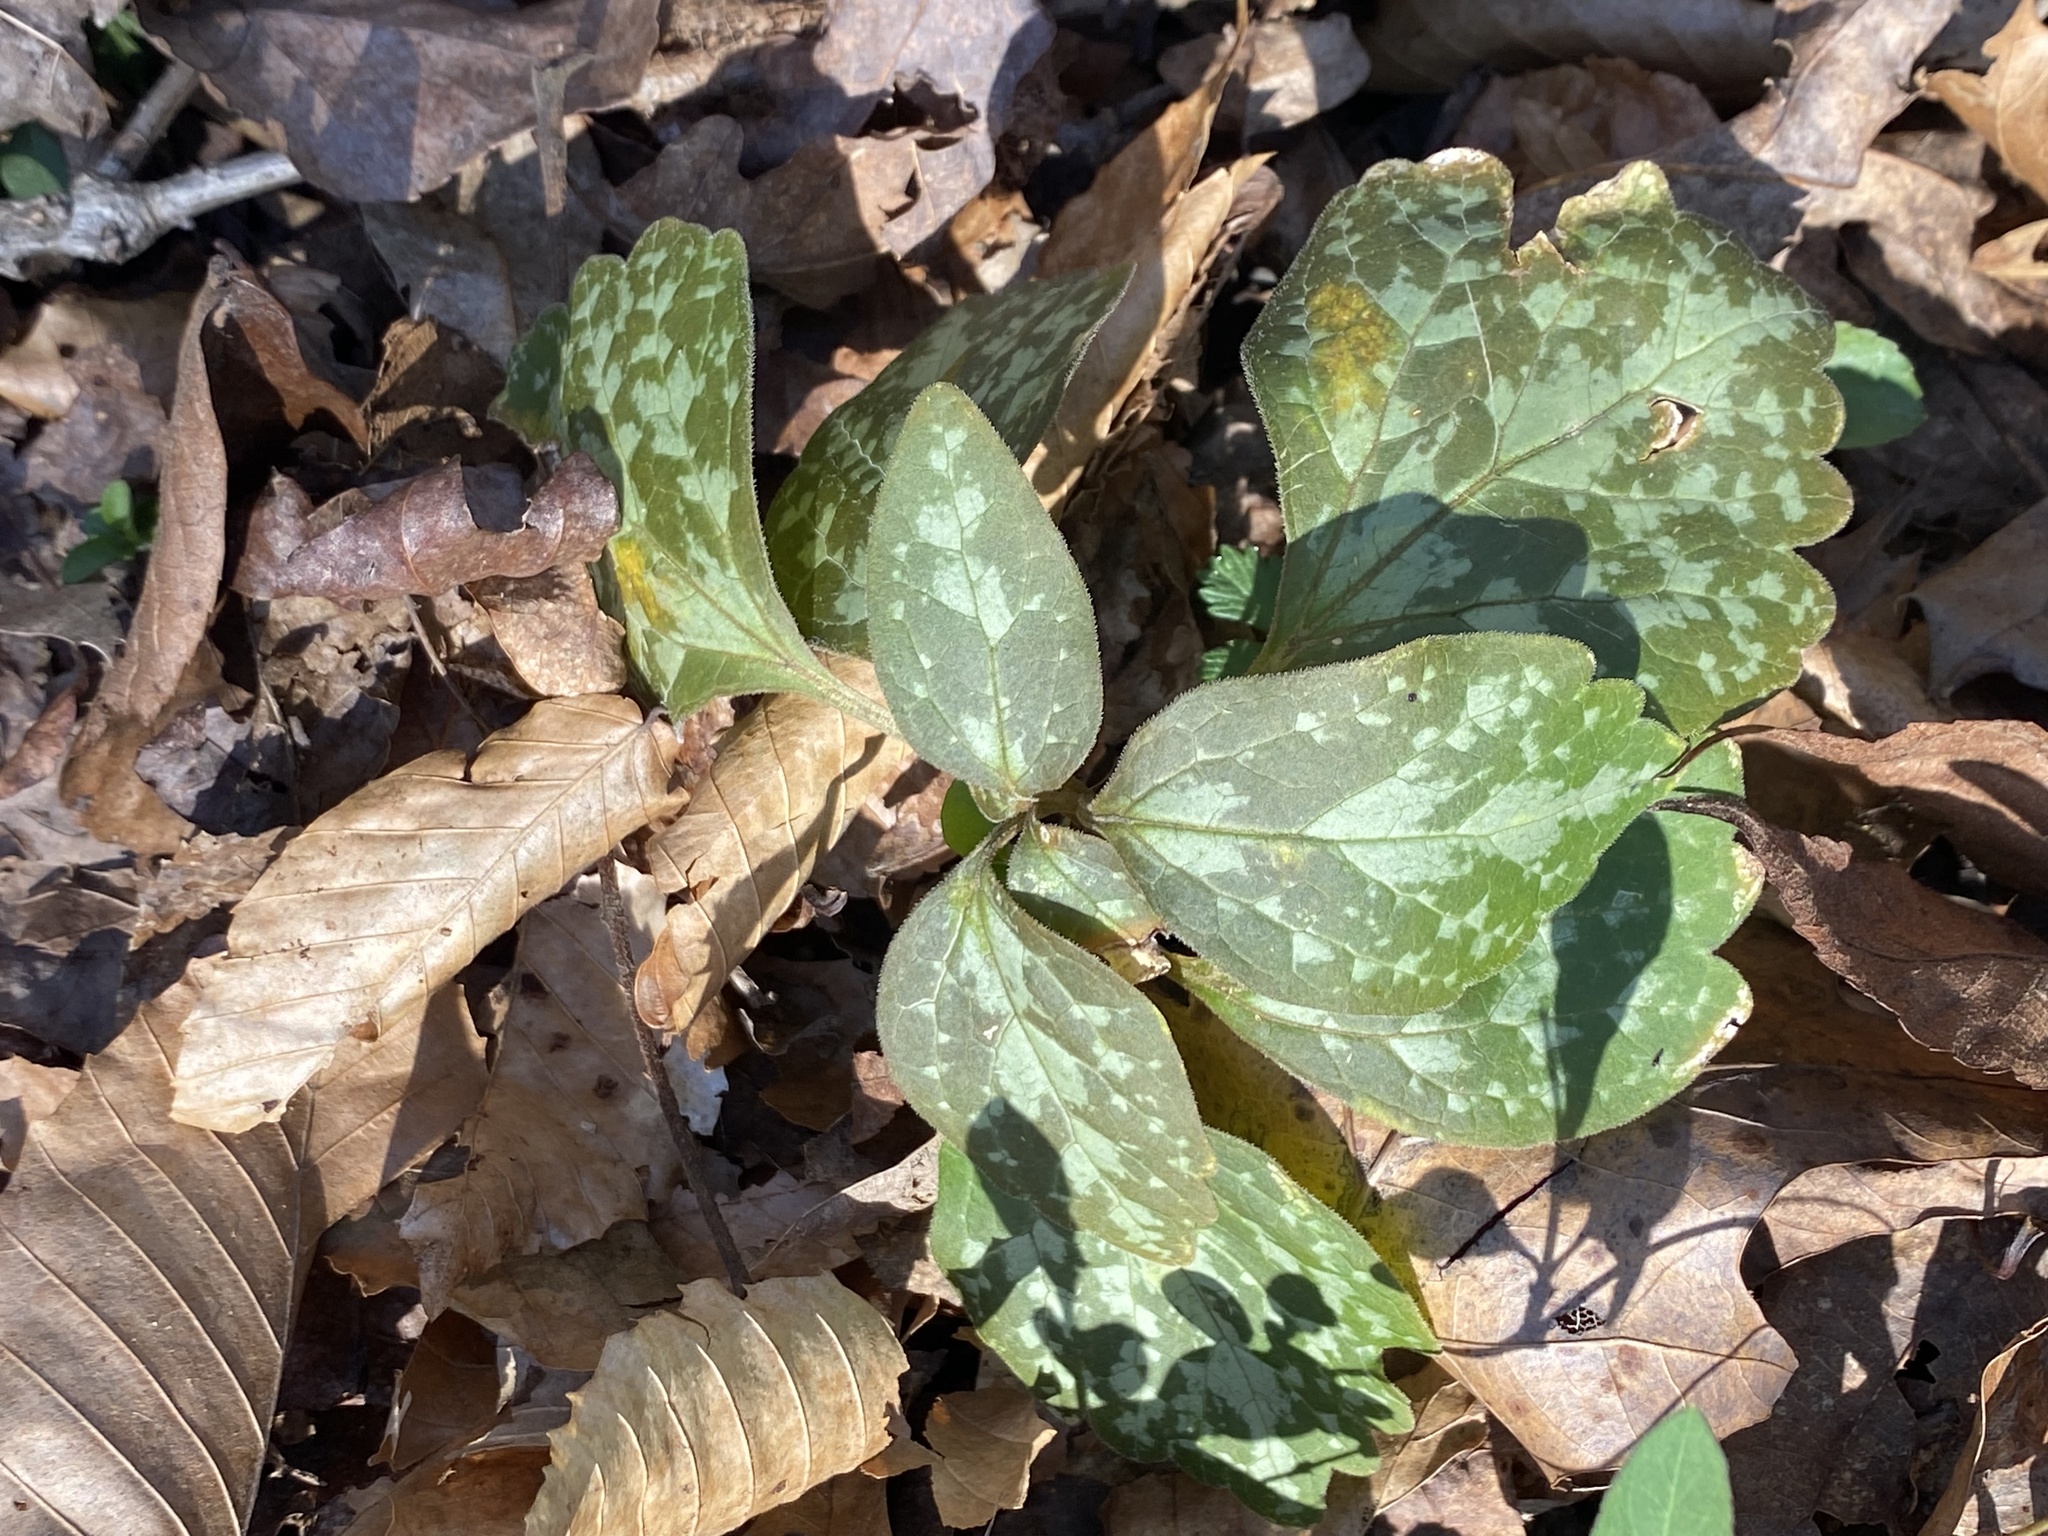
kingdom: Plantae
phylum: Tracheophyta
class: Magnoliopsida
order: Buxales
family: Buxaceae
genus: Pachysandra
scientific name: Pachysandra procumbens
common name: Mountain-spurge
